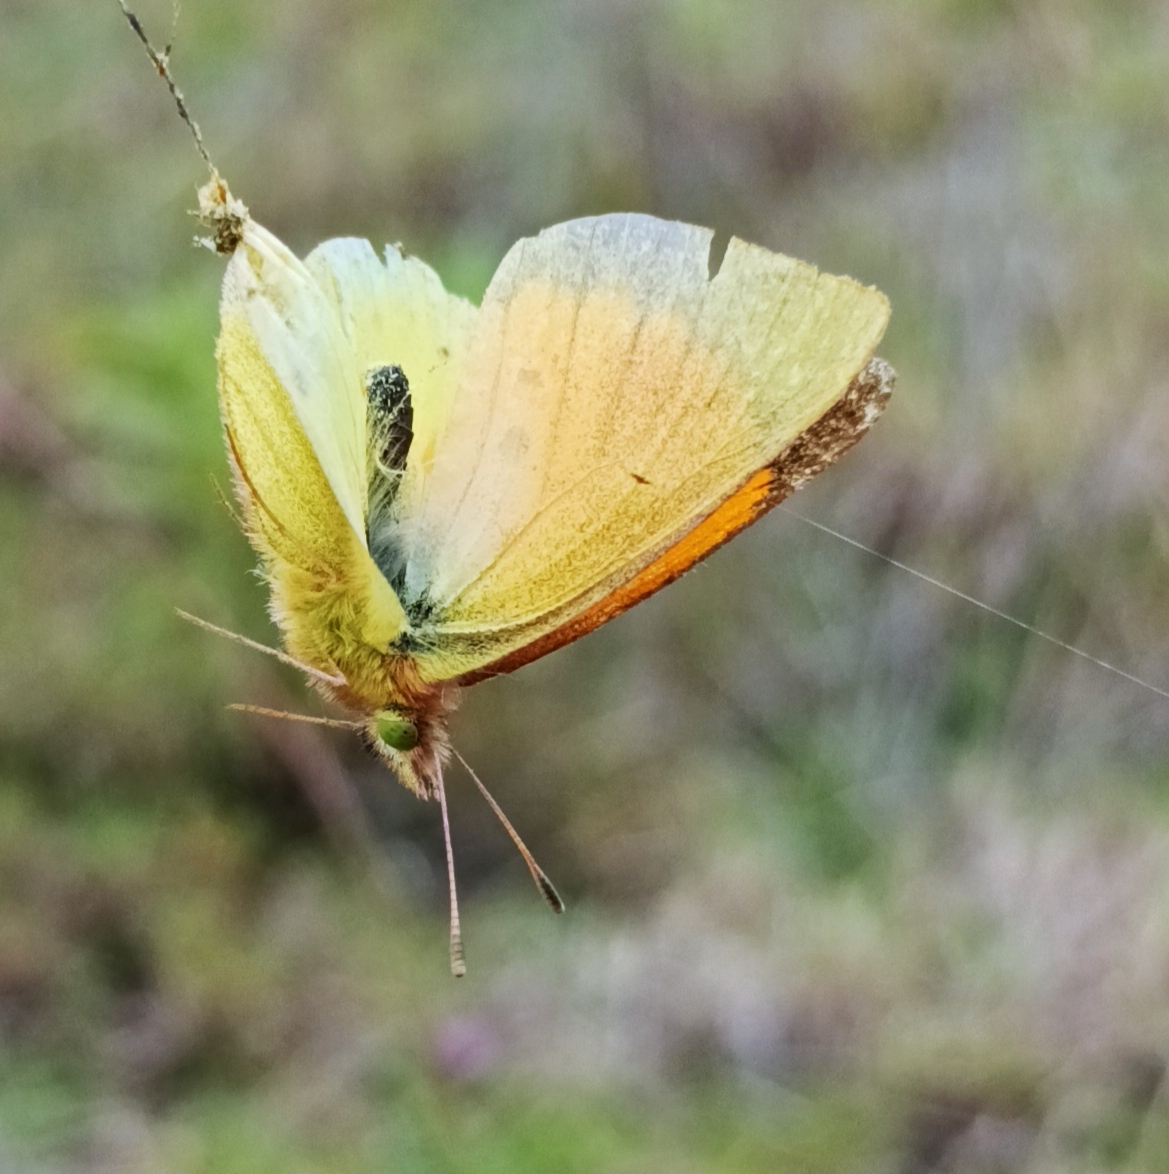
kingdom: Animalia
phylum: Arthropoda
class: Insecta
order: Lepidoptera
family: Pieridae
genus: Colias
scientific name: Colias dimera
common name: Dimera sulphur
